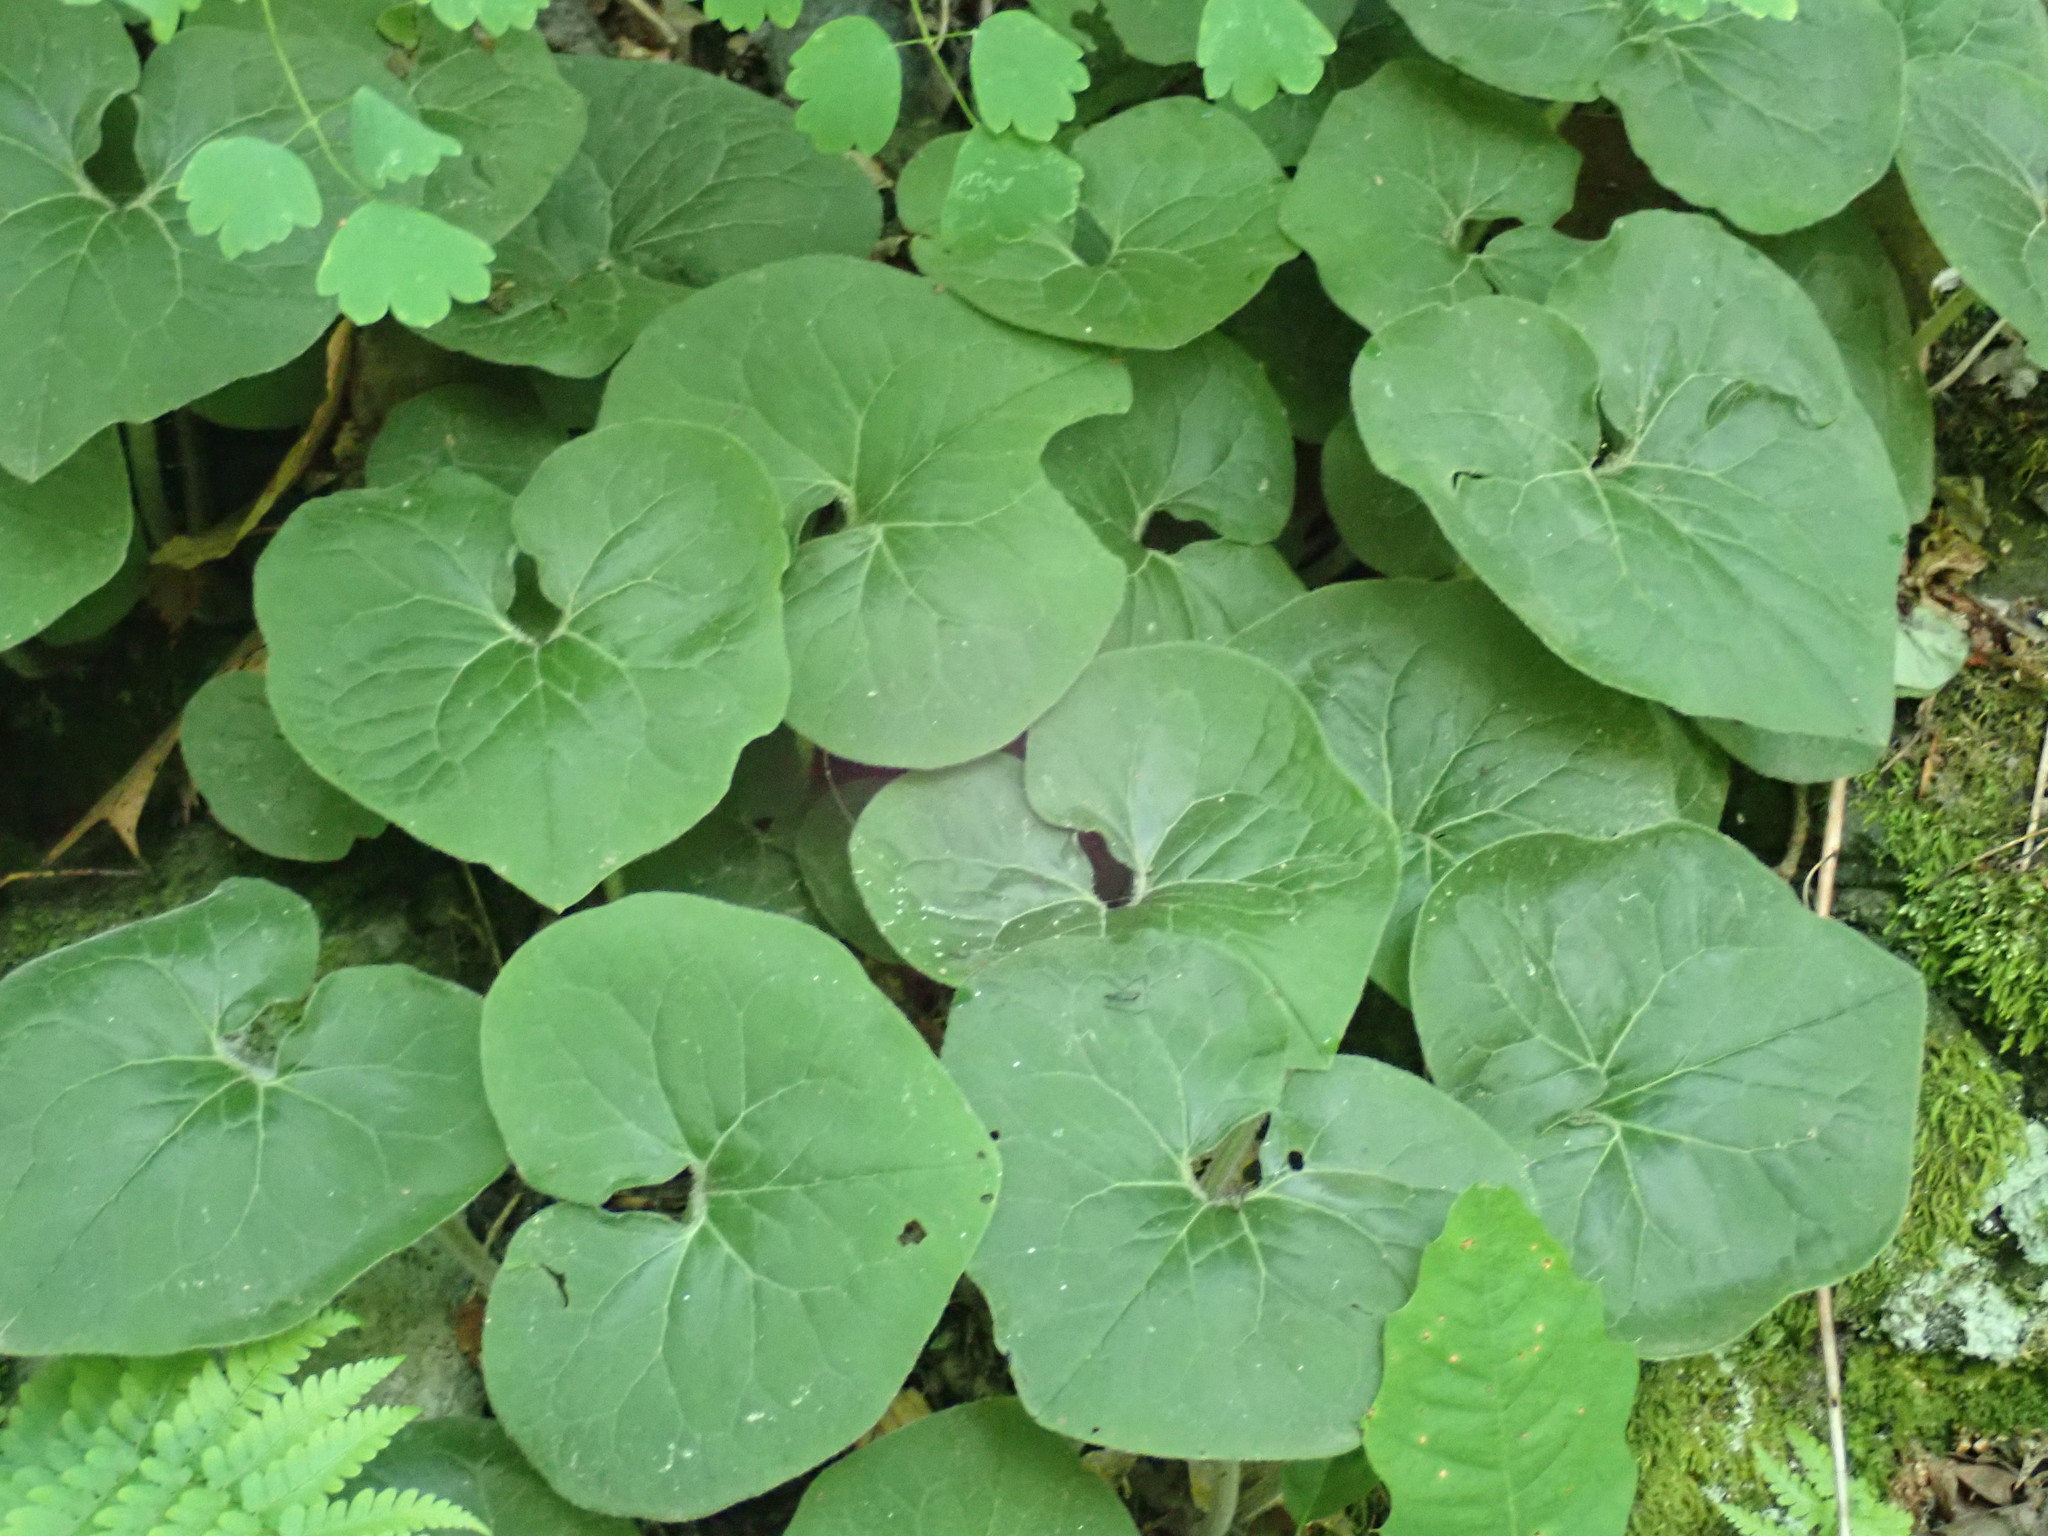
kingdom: Plantae
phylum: Tracheophyta
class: Magnoliopsida
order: Piperales
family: Aristolochiaceae
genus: Asarum
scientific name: Asarum canadense
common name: Wild ginger
